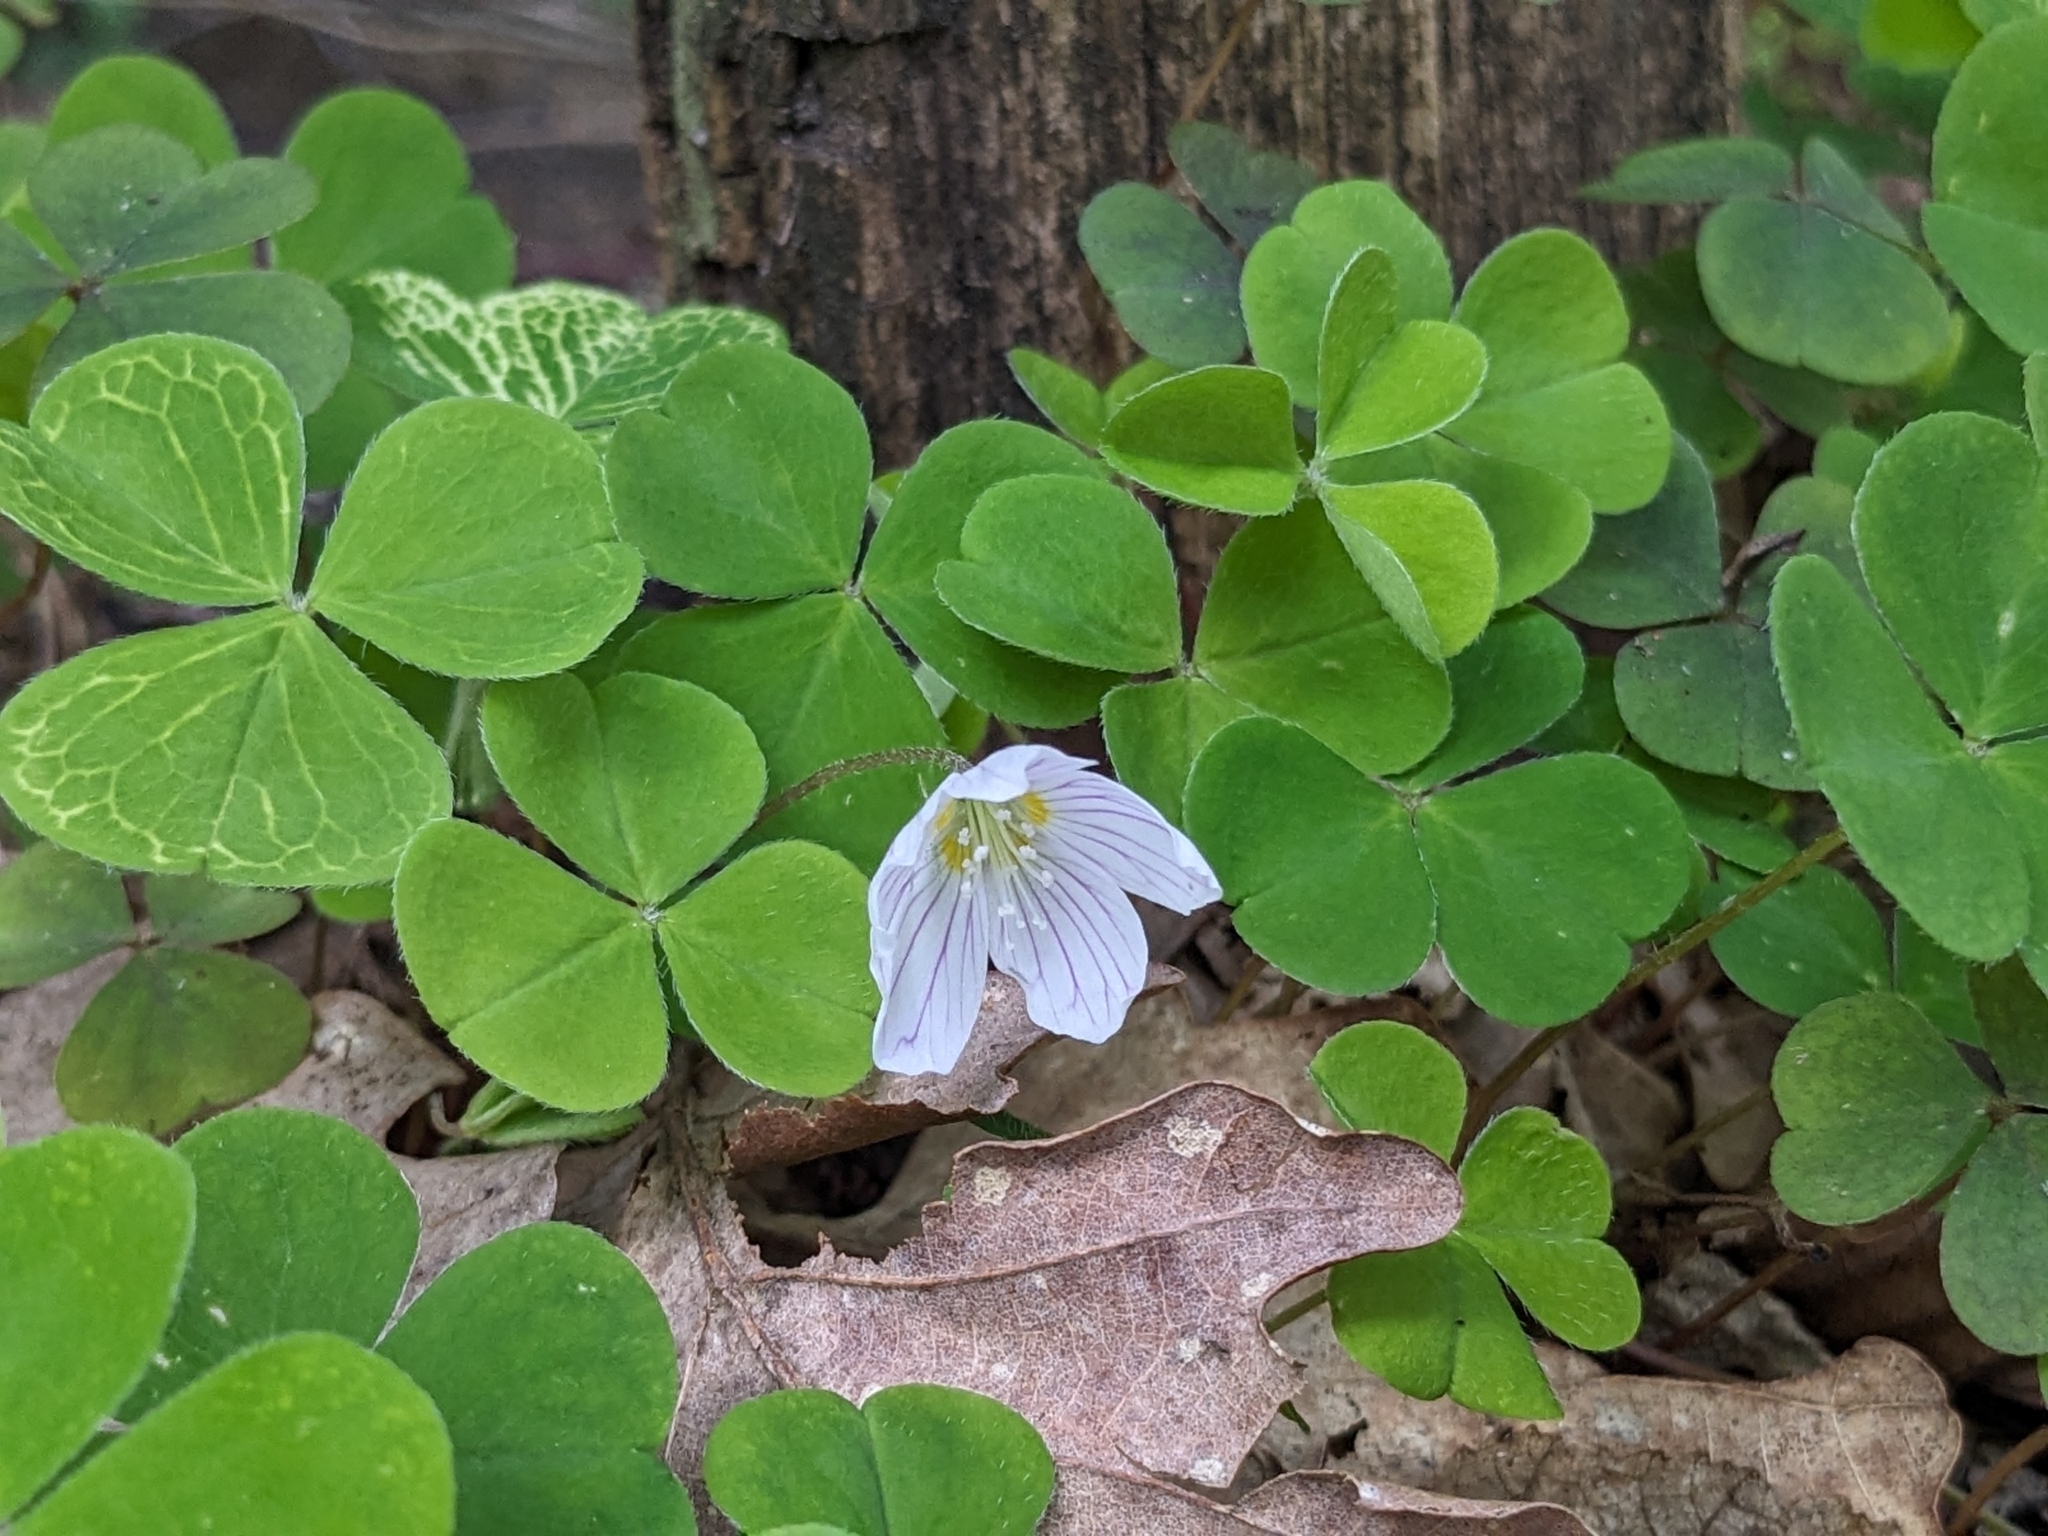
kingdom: Plantae
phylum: Tracheophyta
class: Magnoliopsida
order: Oxalidales
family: Oxalidaceae
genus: Oxalis
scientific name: Oxalis acetosella
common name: Wood-sorrel
